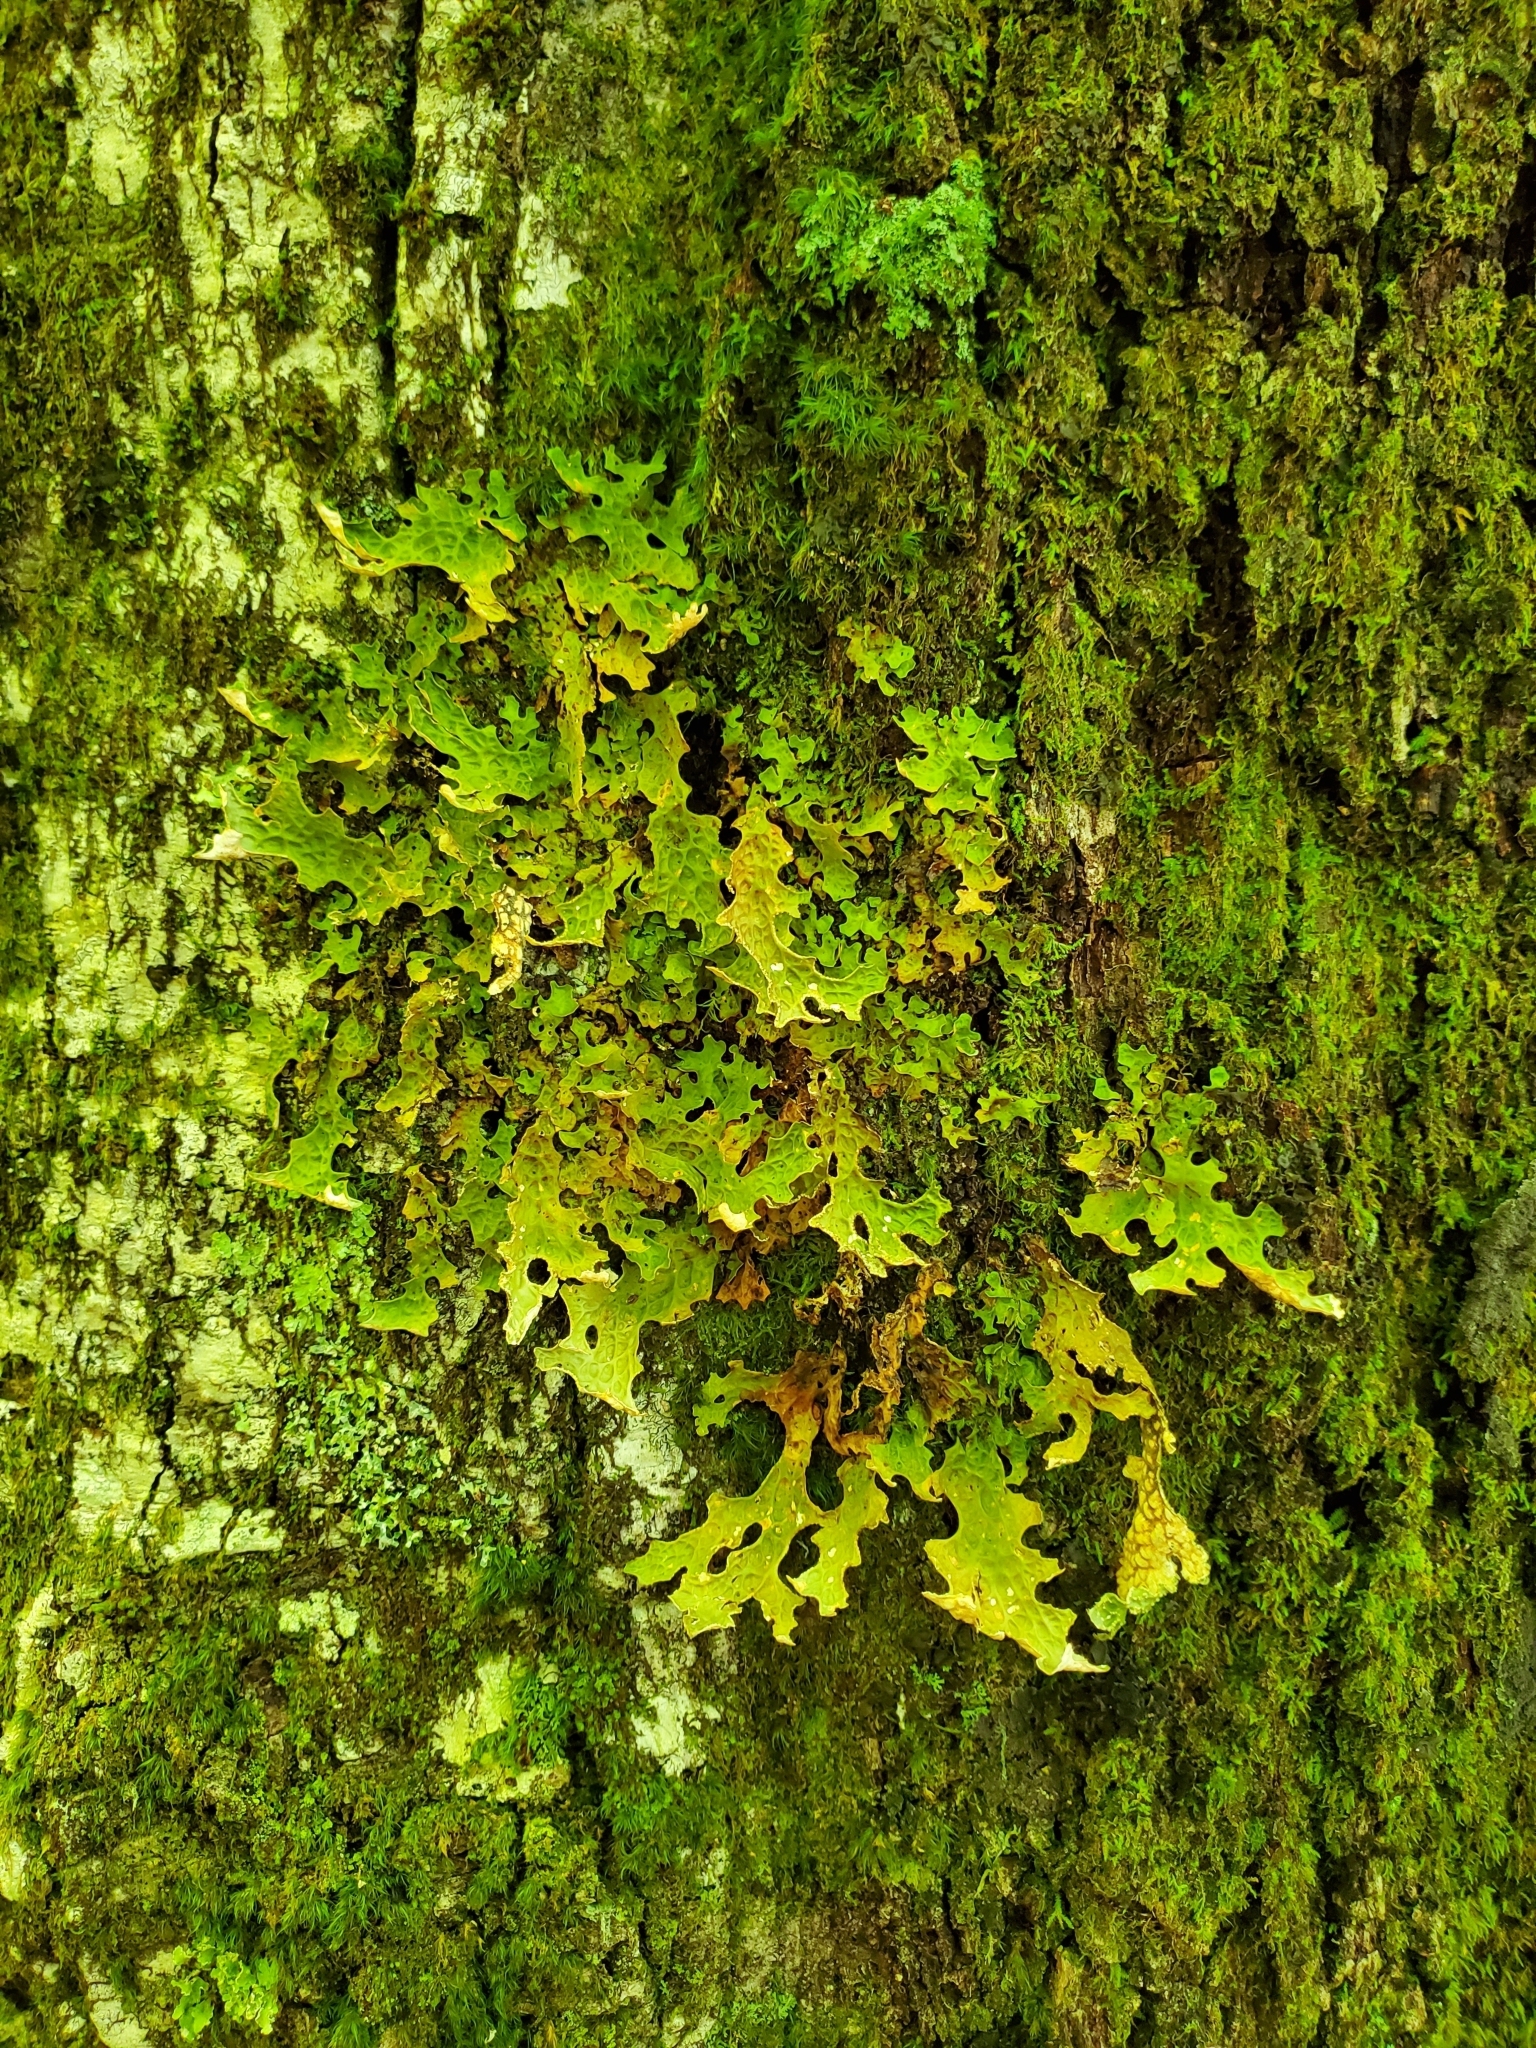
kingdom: Fungi
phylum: Ascomycota
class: Lecanoromycetes
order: Peltigerales
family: Lobariaceae
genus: Lobaria
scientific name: Lobaria pulmonaria
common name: Lungwort
